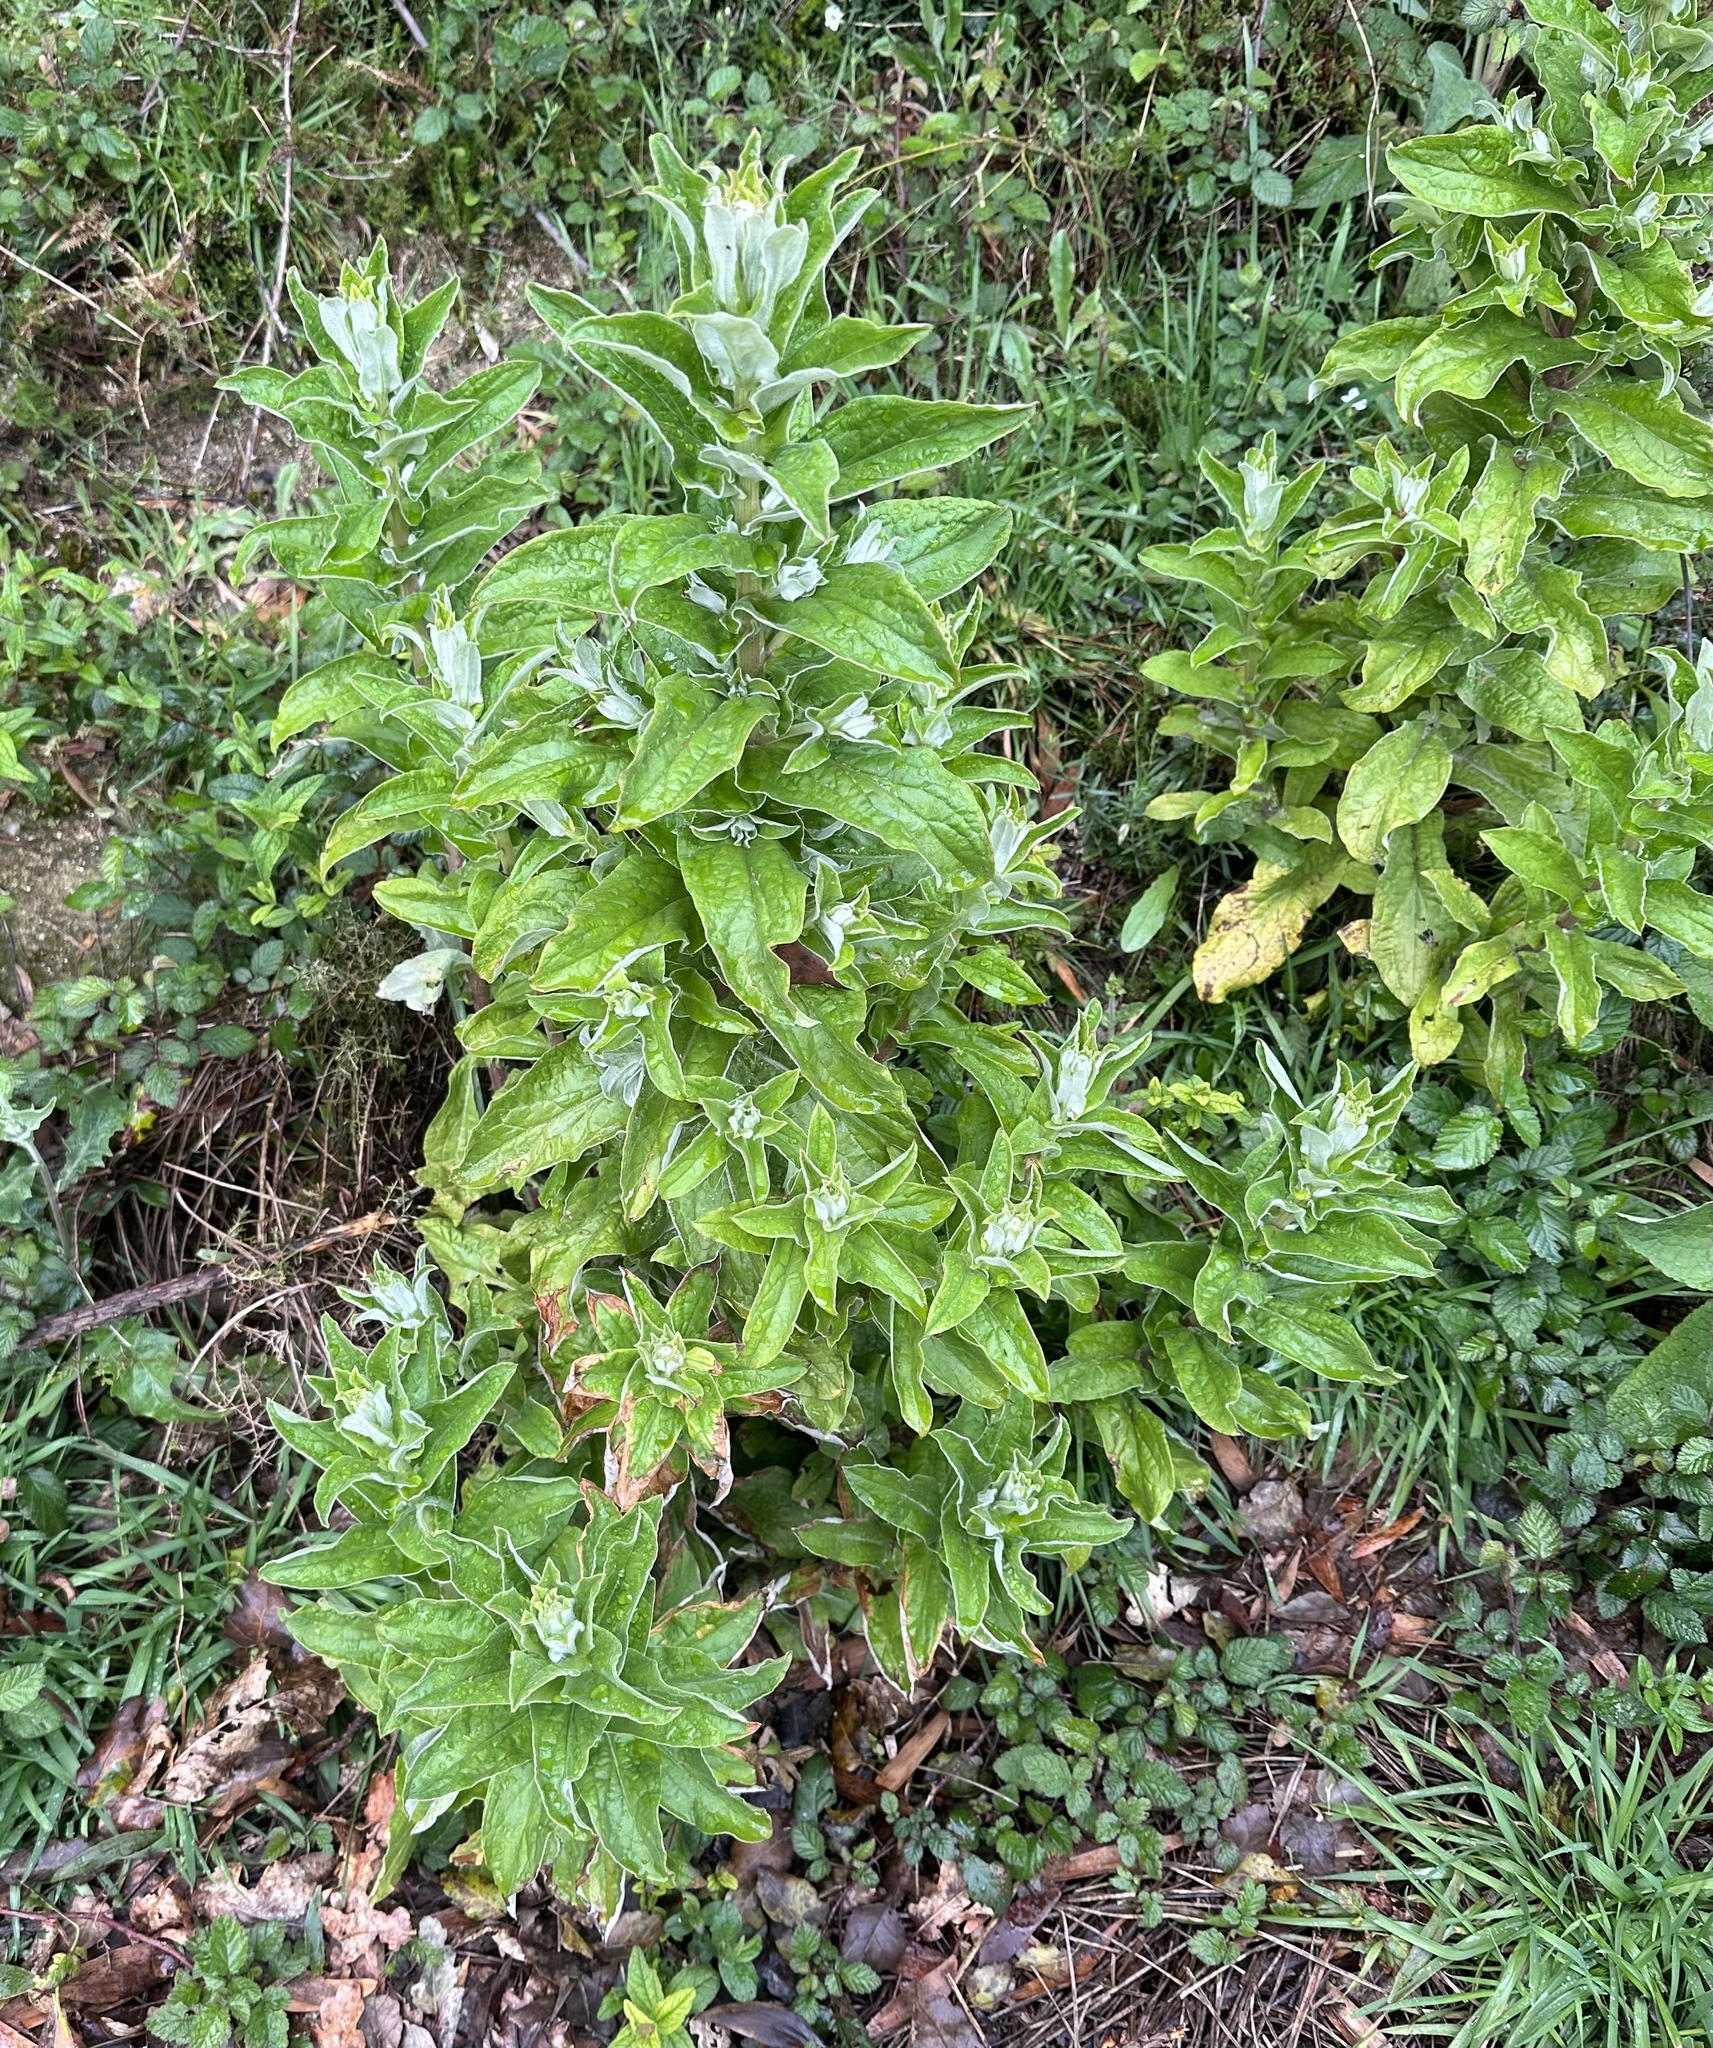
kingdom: Plantae
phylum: Tracheophyta
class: Magnoliopsida
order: Asterales
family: Asteraceae
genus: Helichrysum
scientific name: Helichrysum foetidum
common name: Stinking everlasting
